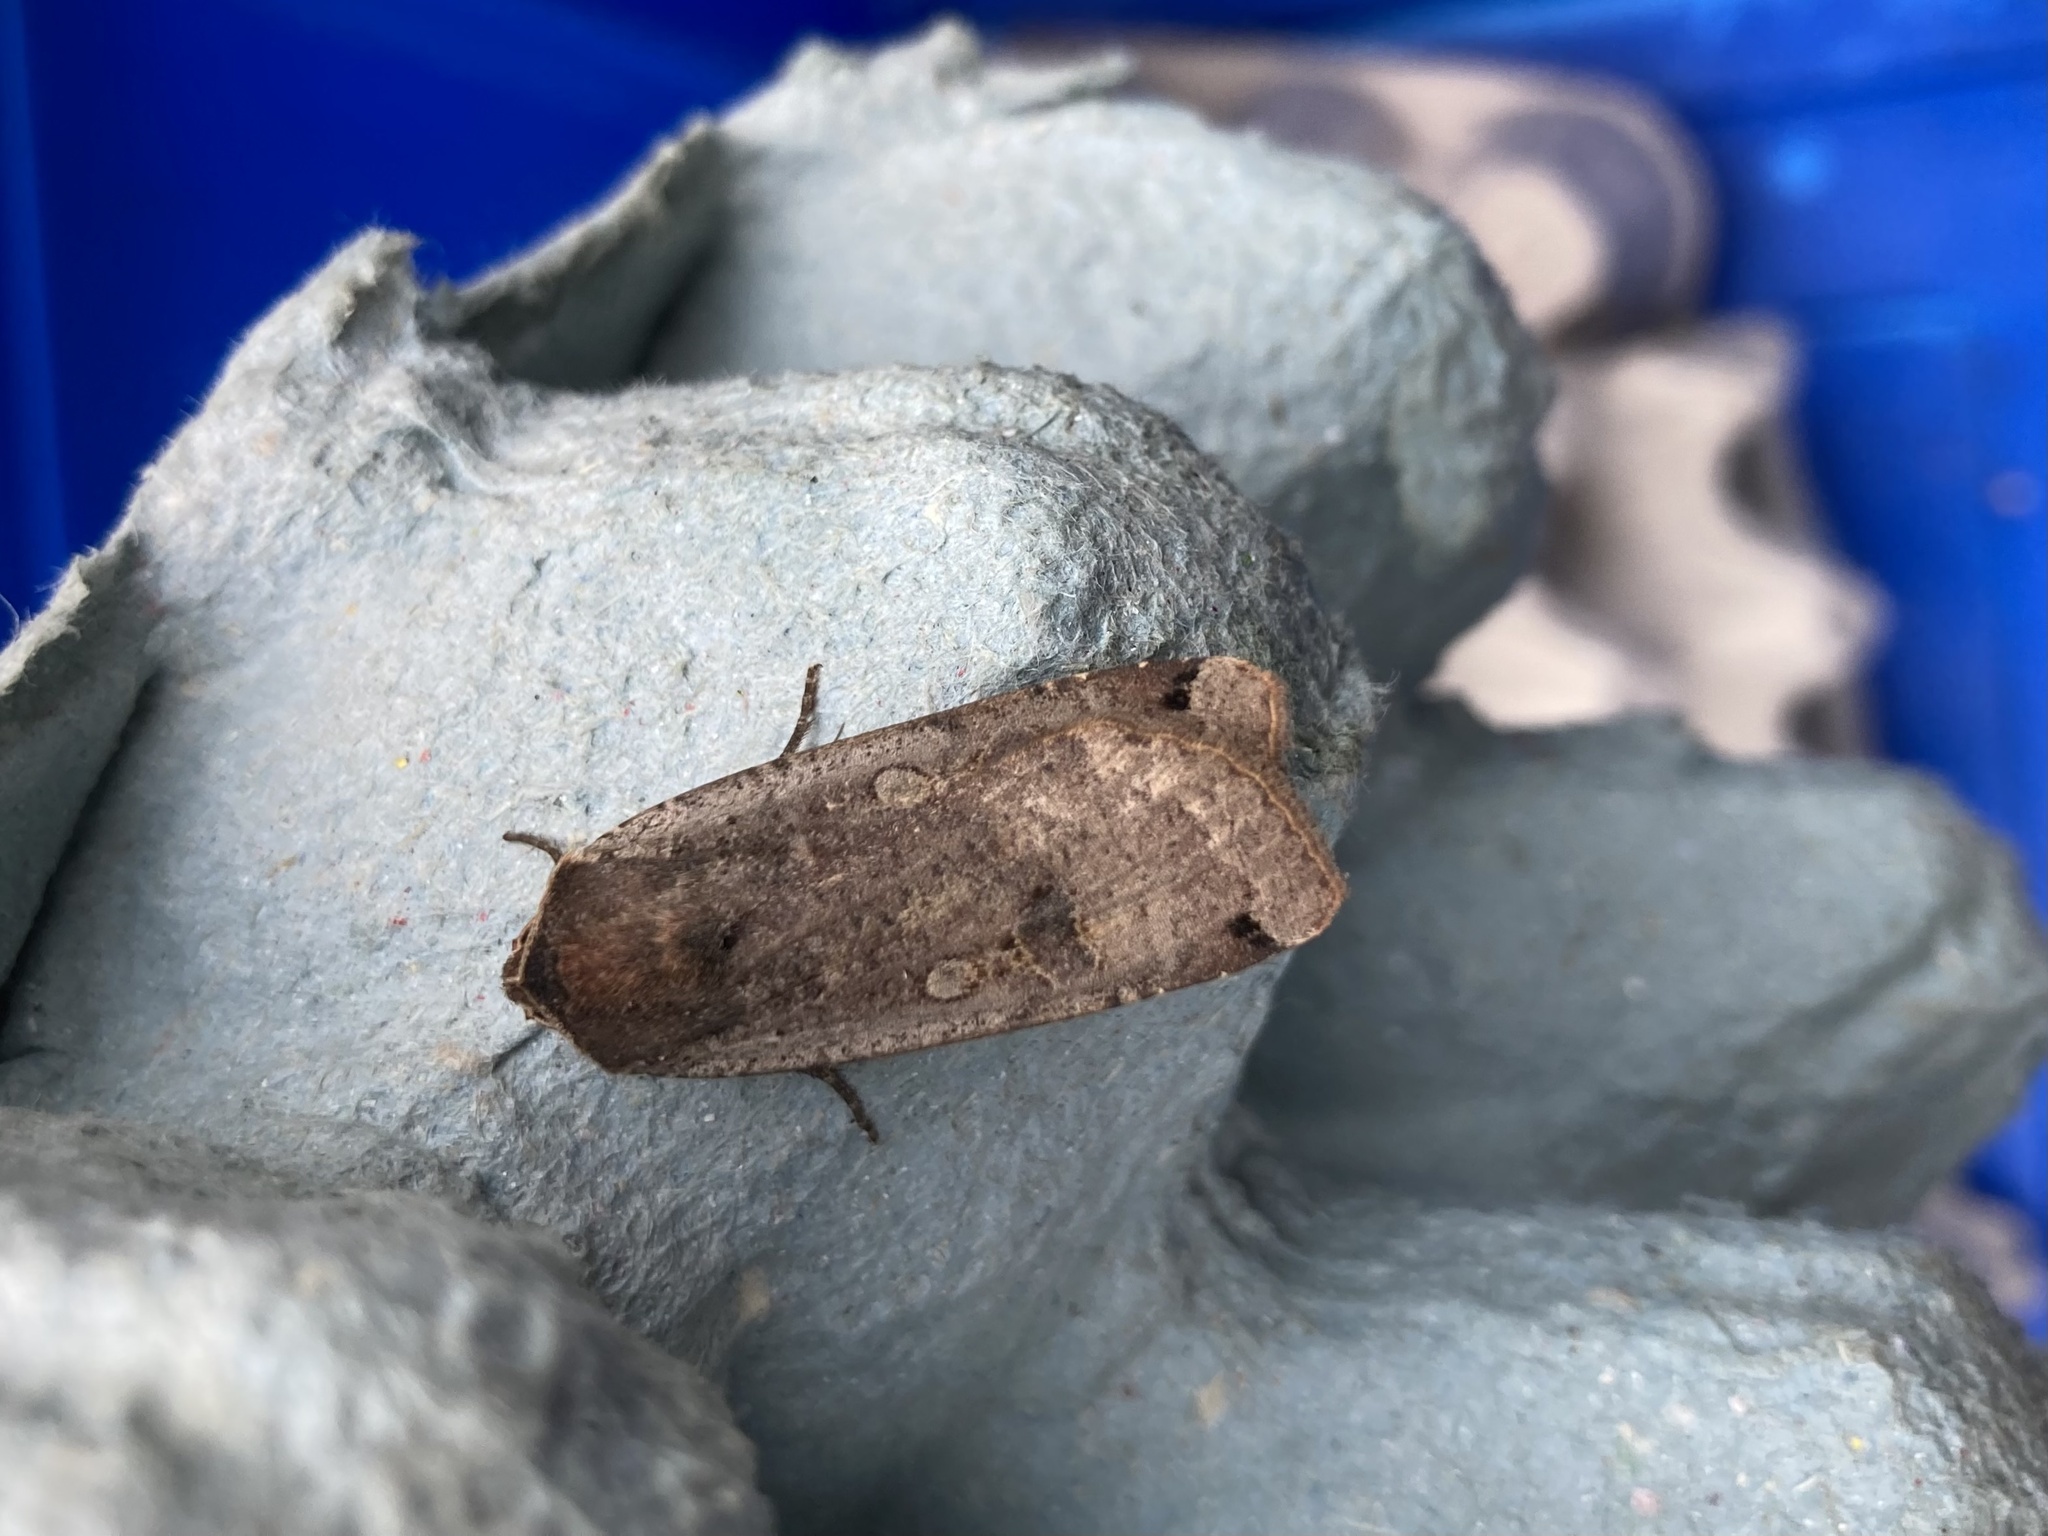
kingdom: Animalia
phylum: Arthropoda
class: Insecta
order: Lepidoptera
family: Noctuidae
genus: Noctua
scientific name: Noctua pronuba
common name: Large yellow underwing
